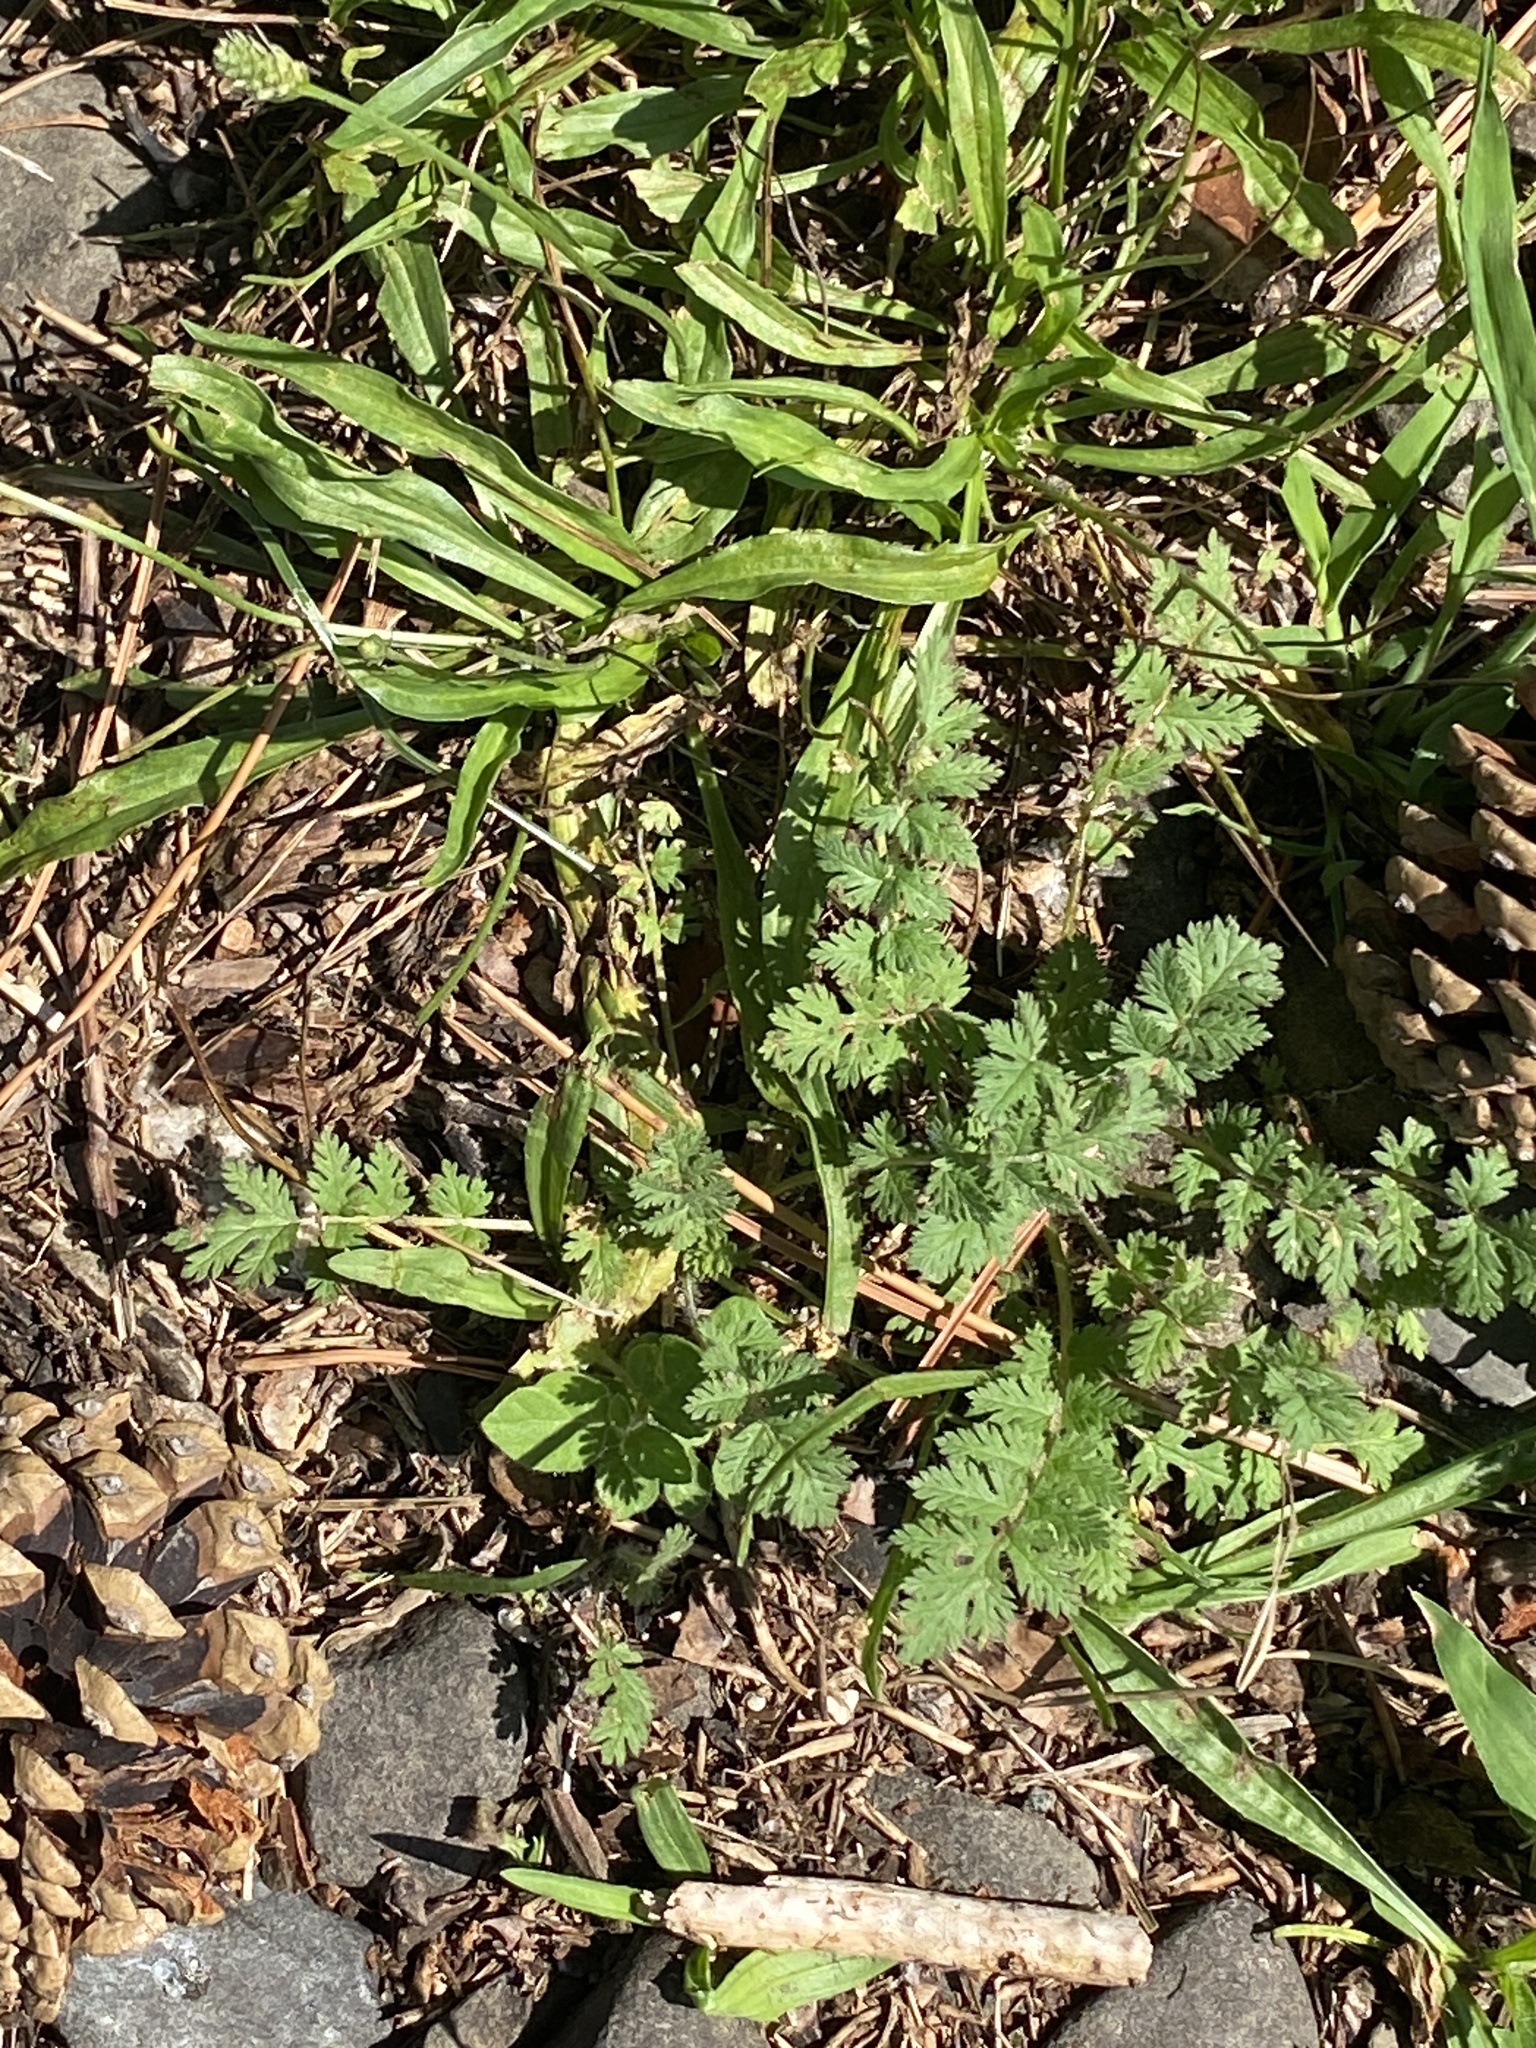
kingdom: Plantae
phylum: Tracheophyta
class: Magnoliopsida
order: Geraniales
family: Geraniaceae
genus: Erodium
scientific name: Erodium cicutarium
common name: Common stork's-bill
